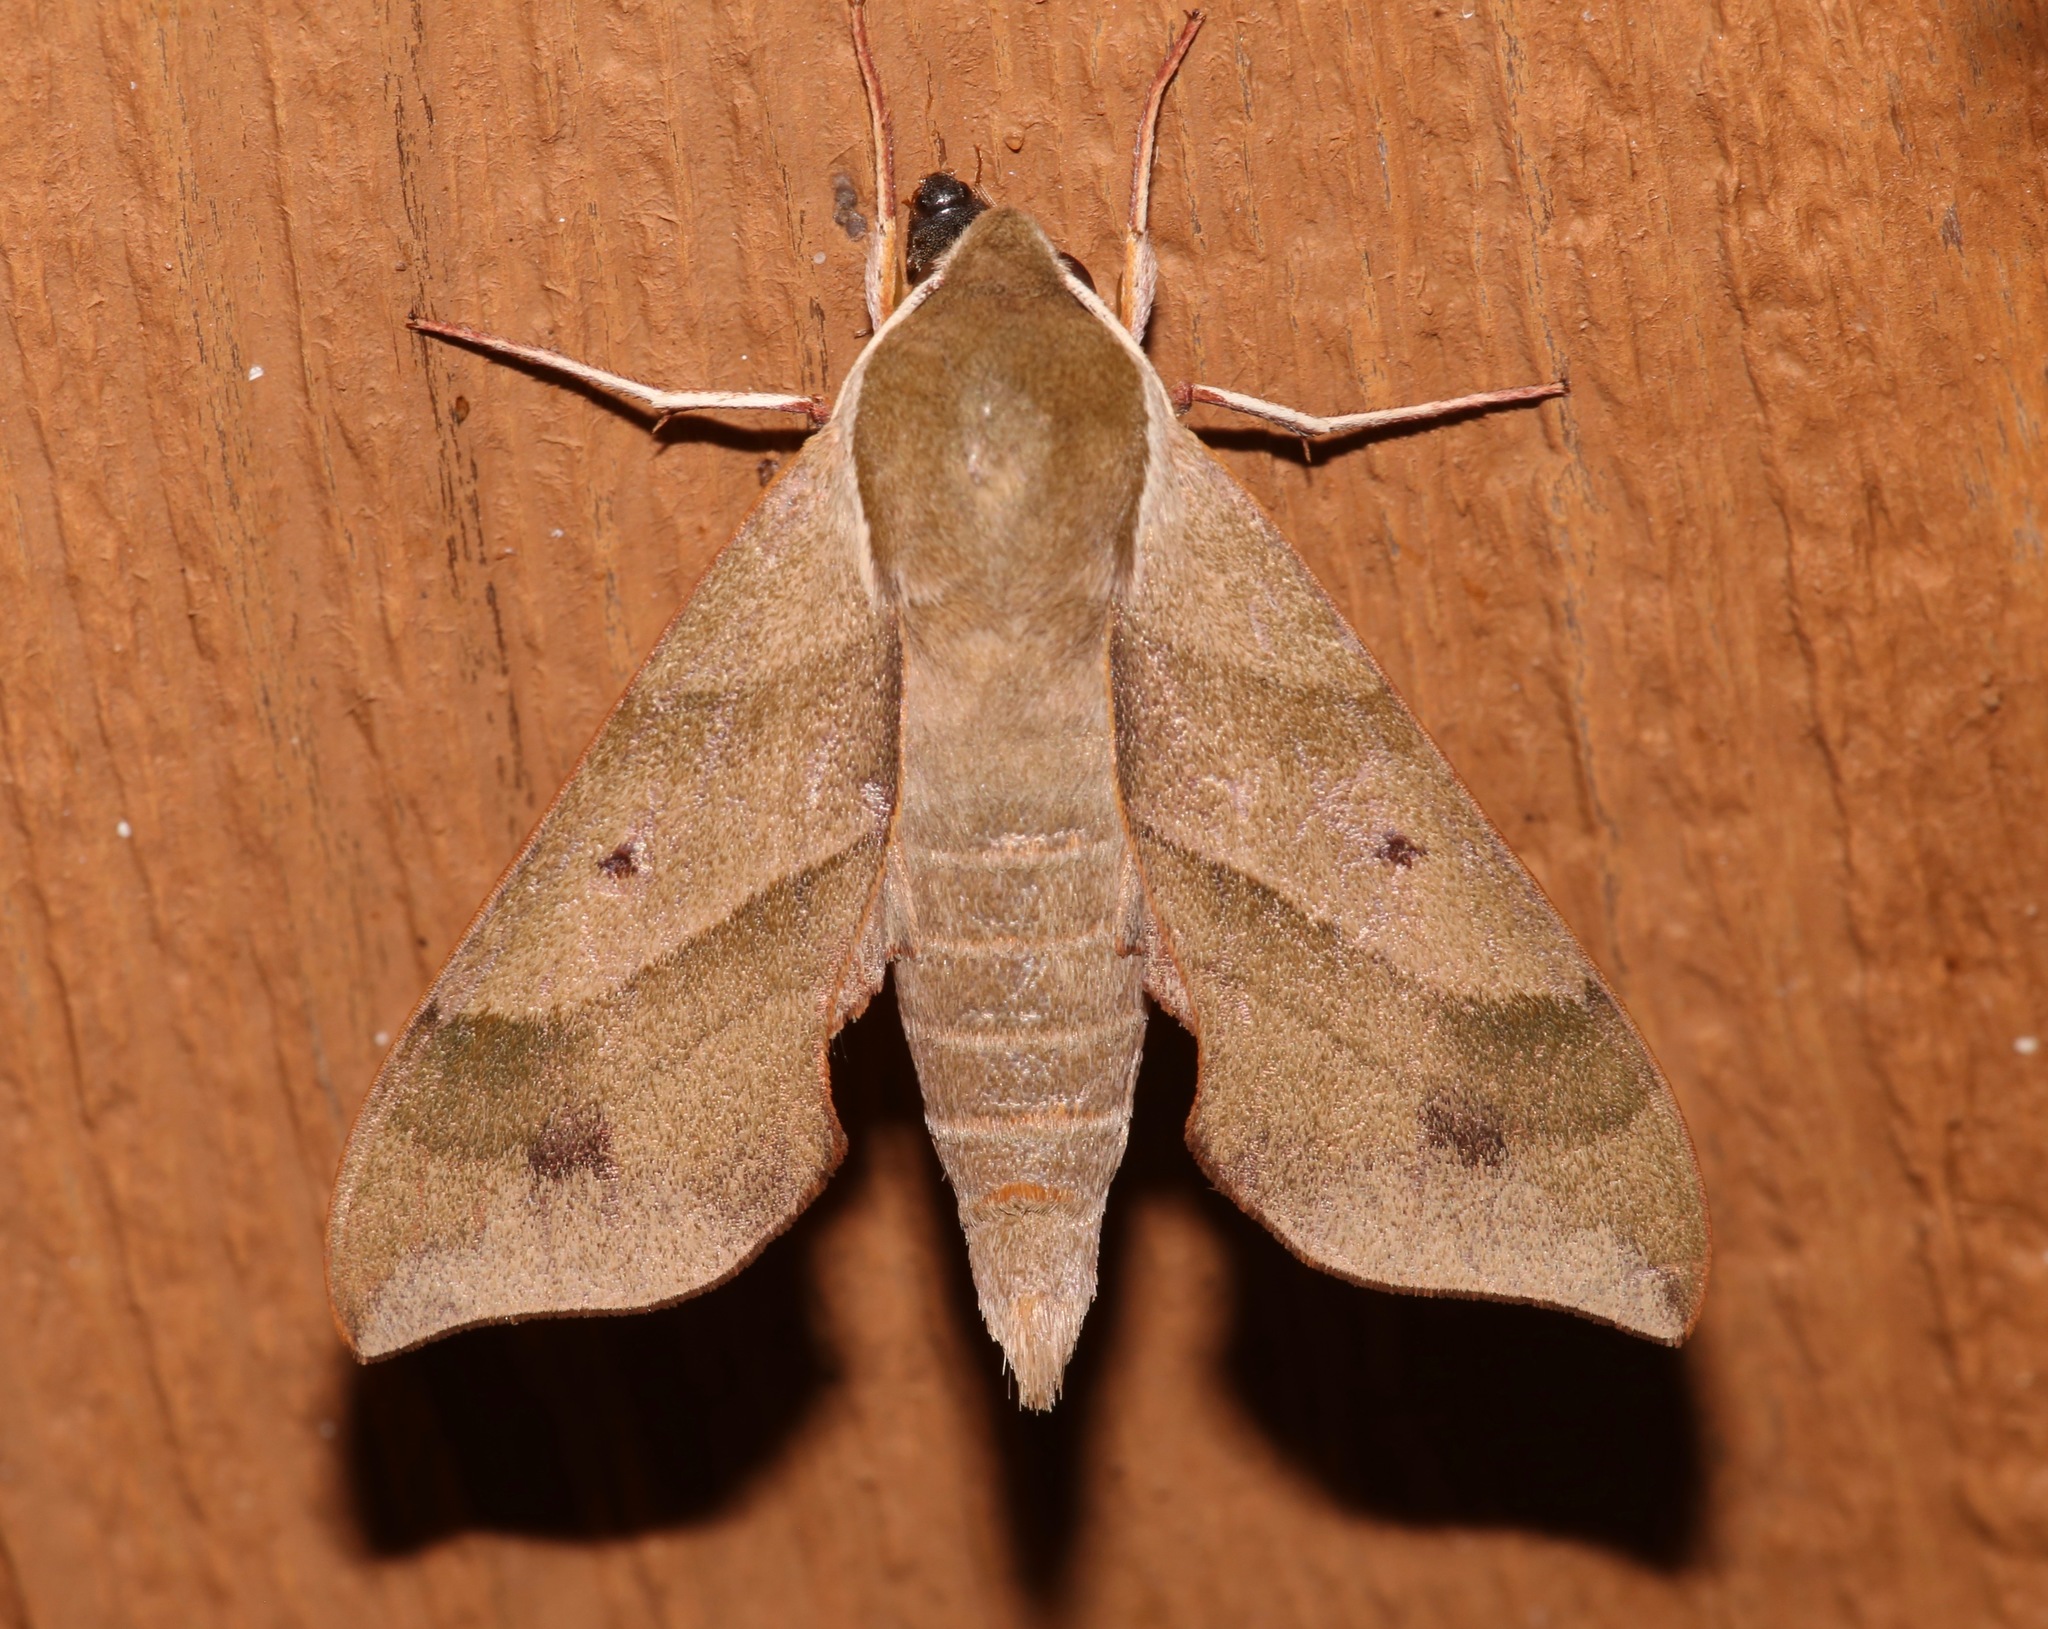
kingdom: Animalia
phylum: Arthropoda
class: Insecta
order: Lepidoptera
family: Sphingidae
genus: Darapsa
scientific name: Darapsa myron
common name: Hog sphinx
